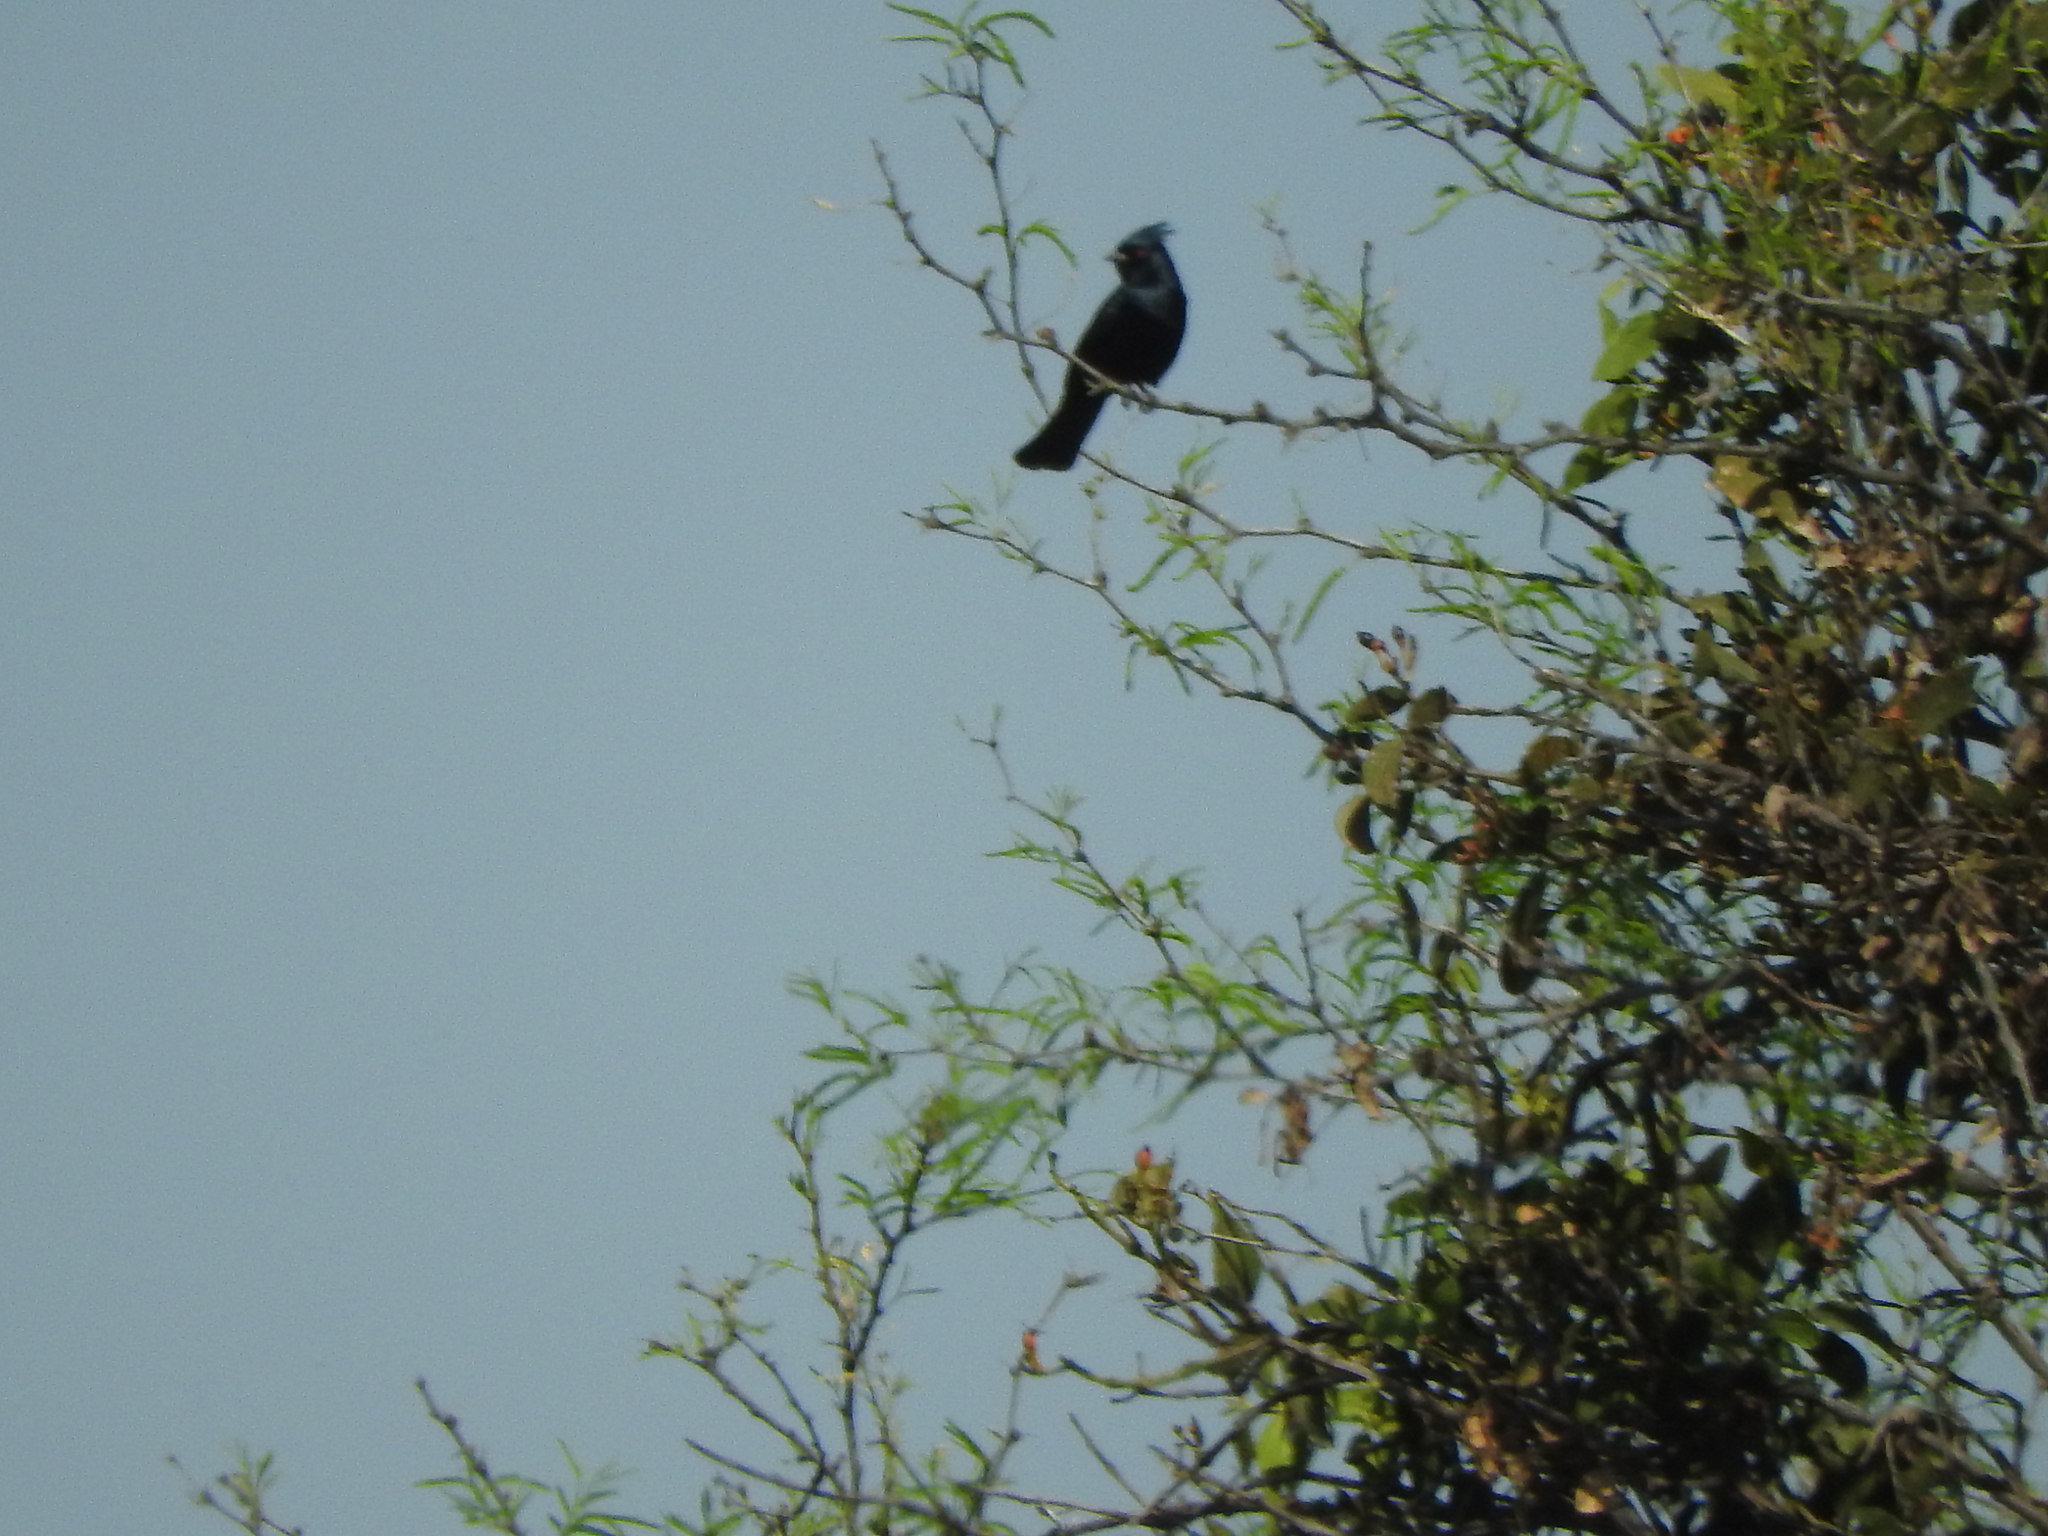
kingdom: Animalia
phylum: Chordata
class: Aves
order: Passeriformes
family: Ptilogonatidae
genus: Phainopepla
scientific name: Phainopepla nitens
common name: Phainopepla
